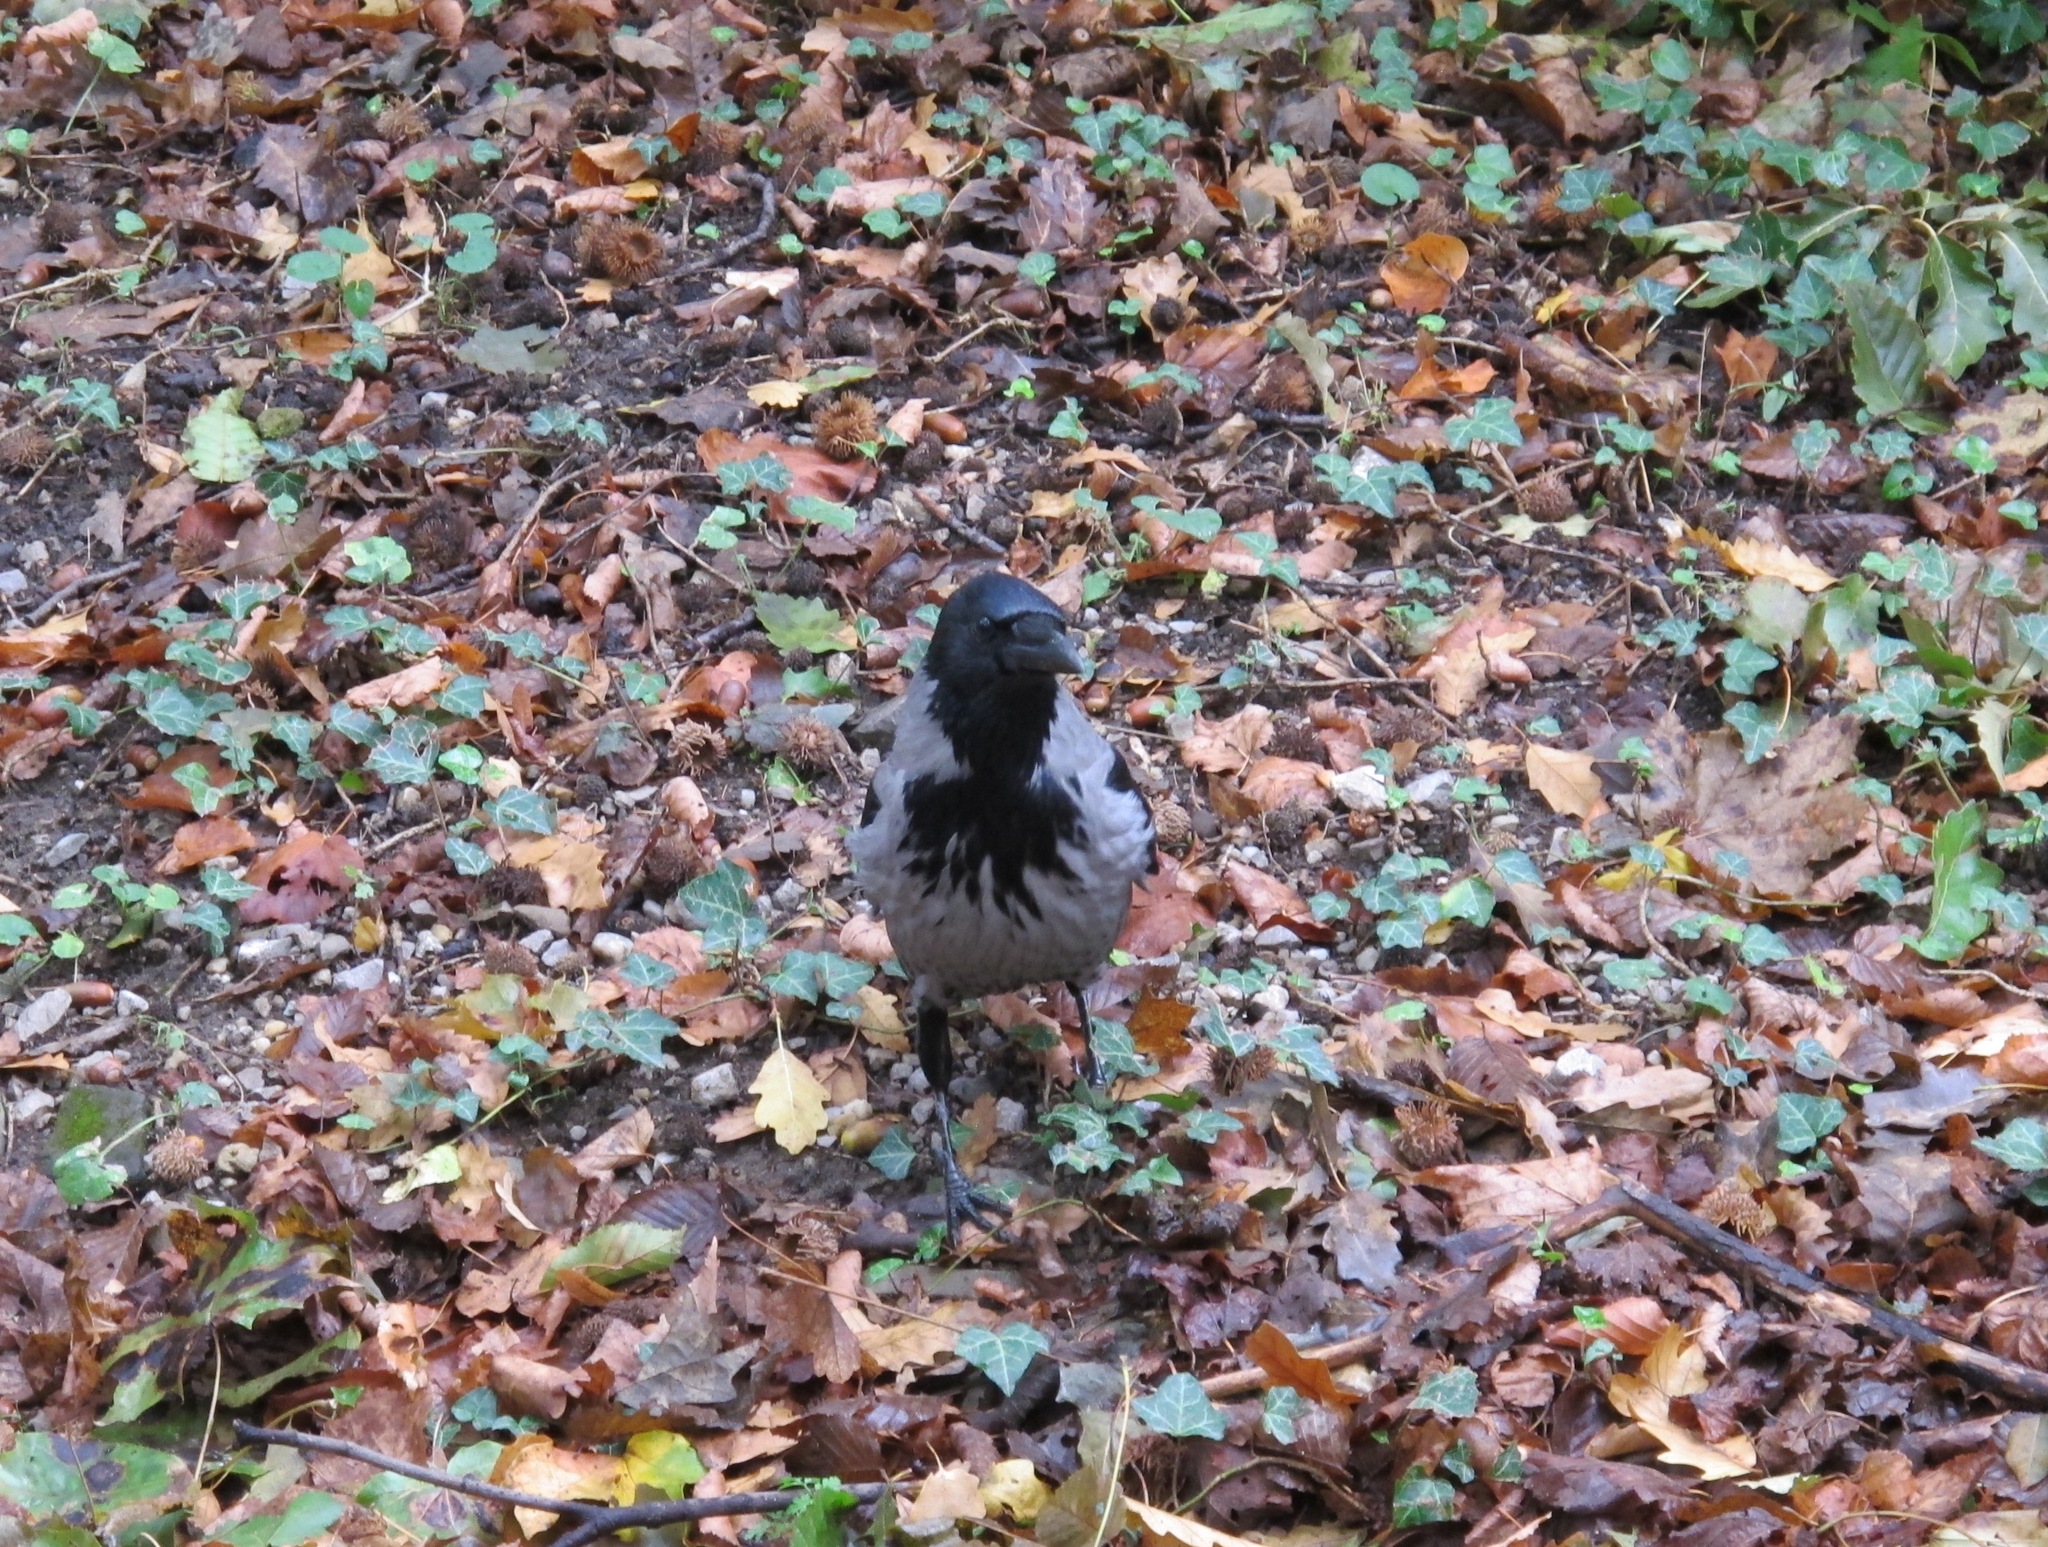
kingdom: Animalia
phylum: Chordata
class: Aves
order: Passeriformes
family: Corvidae
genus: Corvus
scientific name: Corvus cornix
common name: Hooded crow
